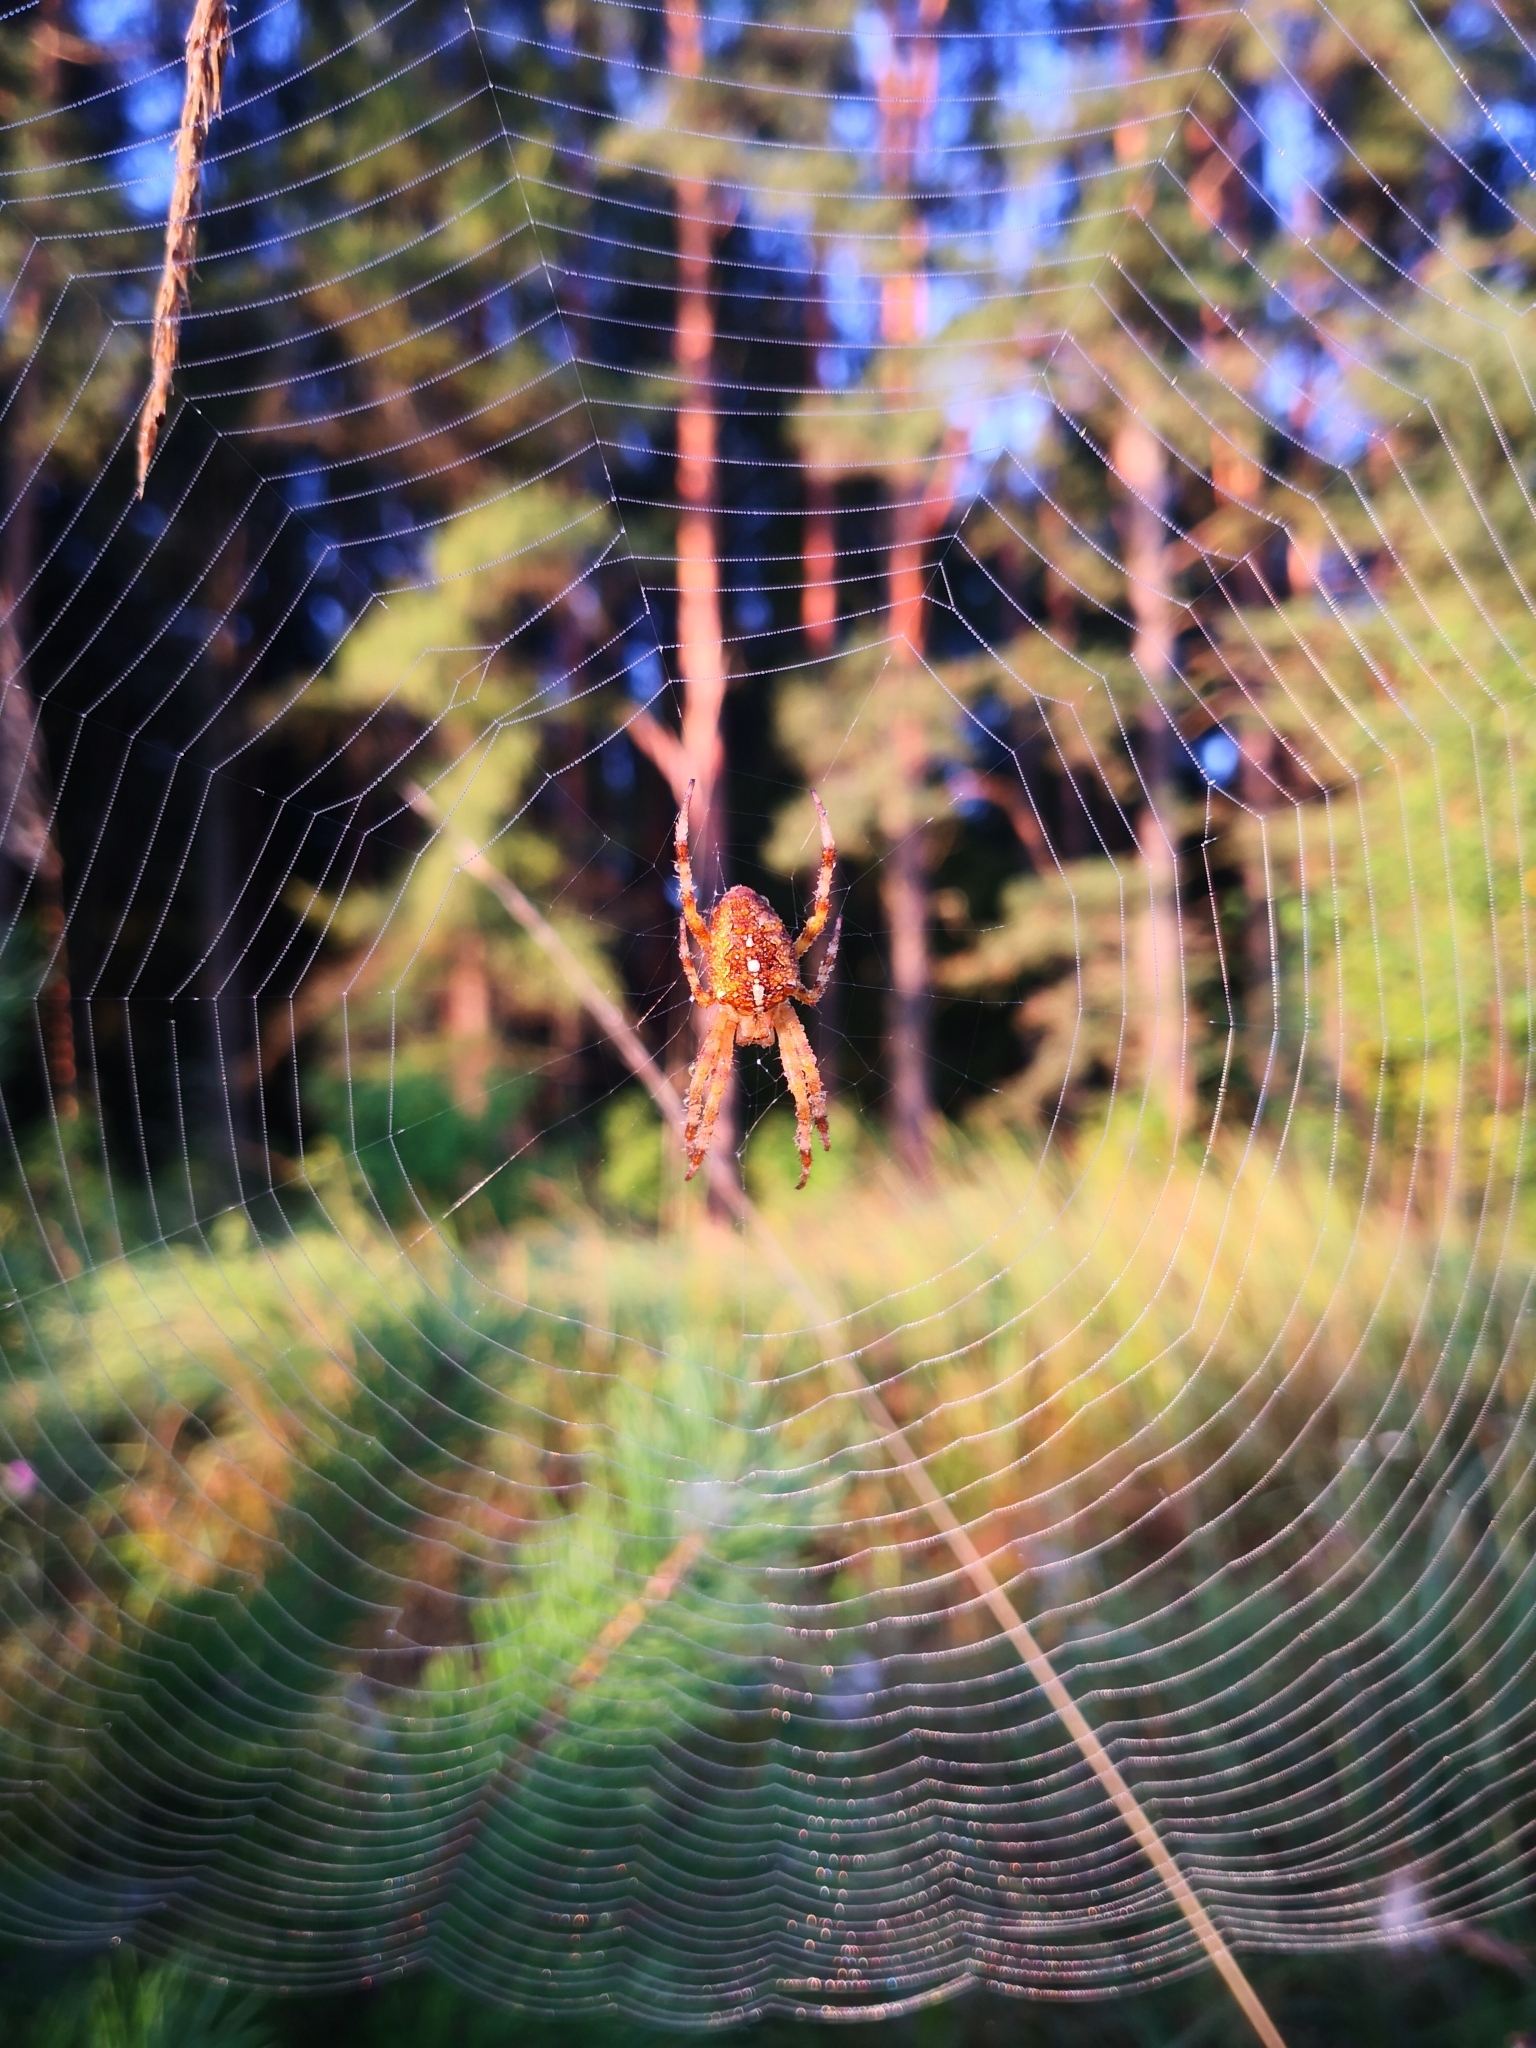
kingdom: Animalia
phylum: Arthropoda
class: Arachnida
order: Araneae
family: Araneidae
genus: Araneus
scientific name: Araneus diadematus
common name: Cross orbweaver
